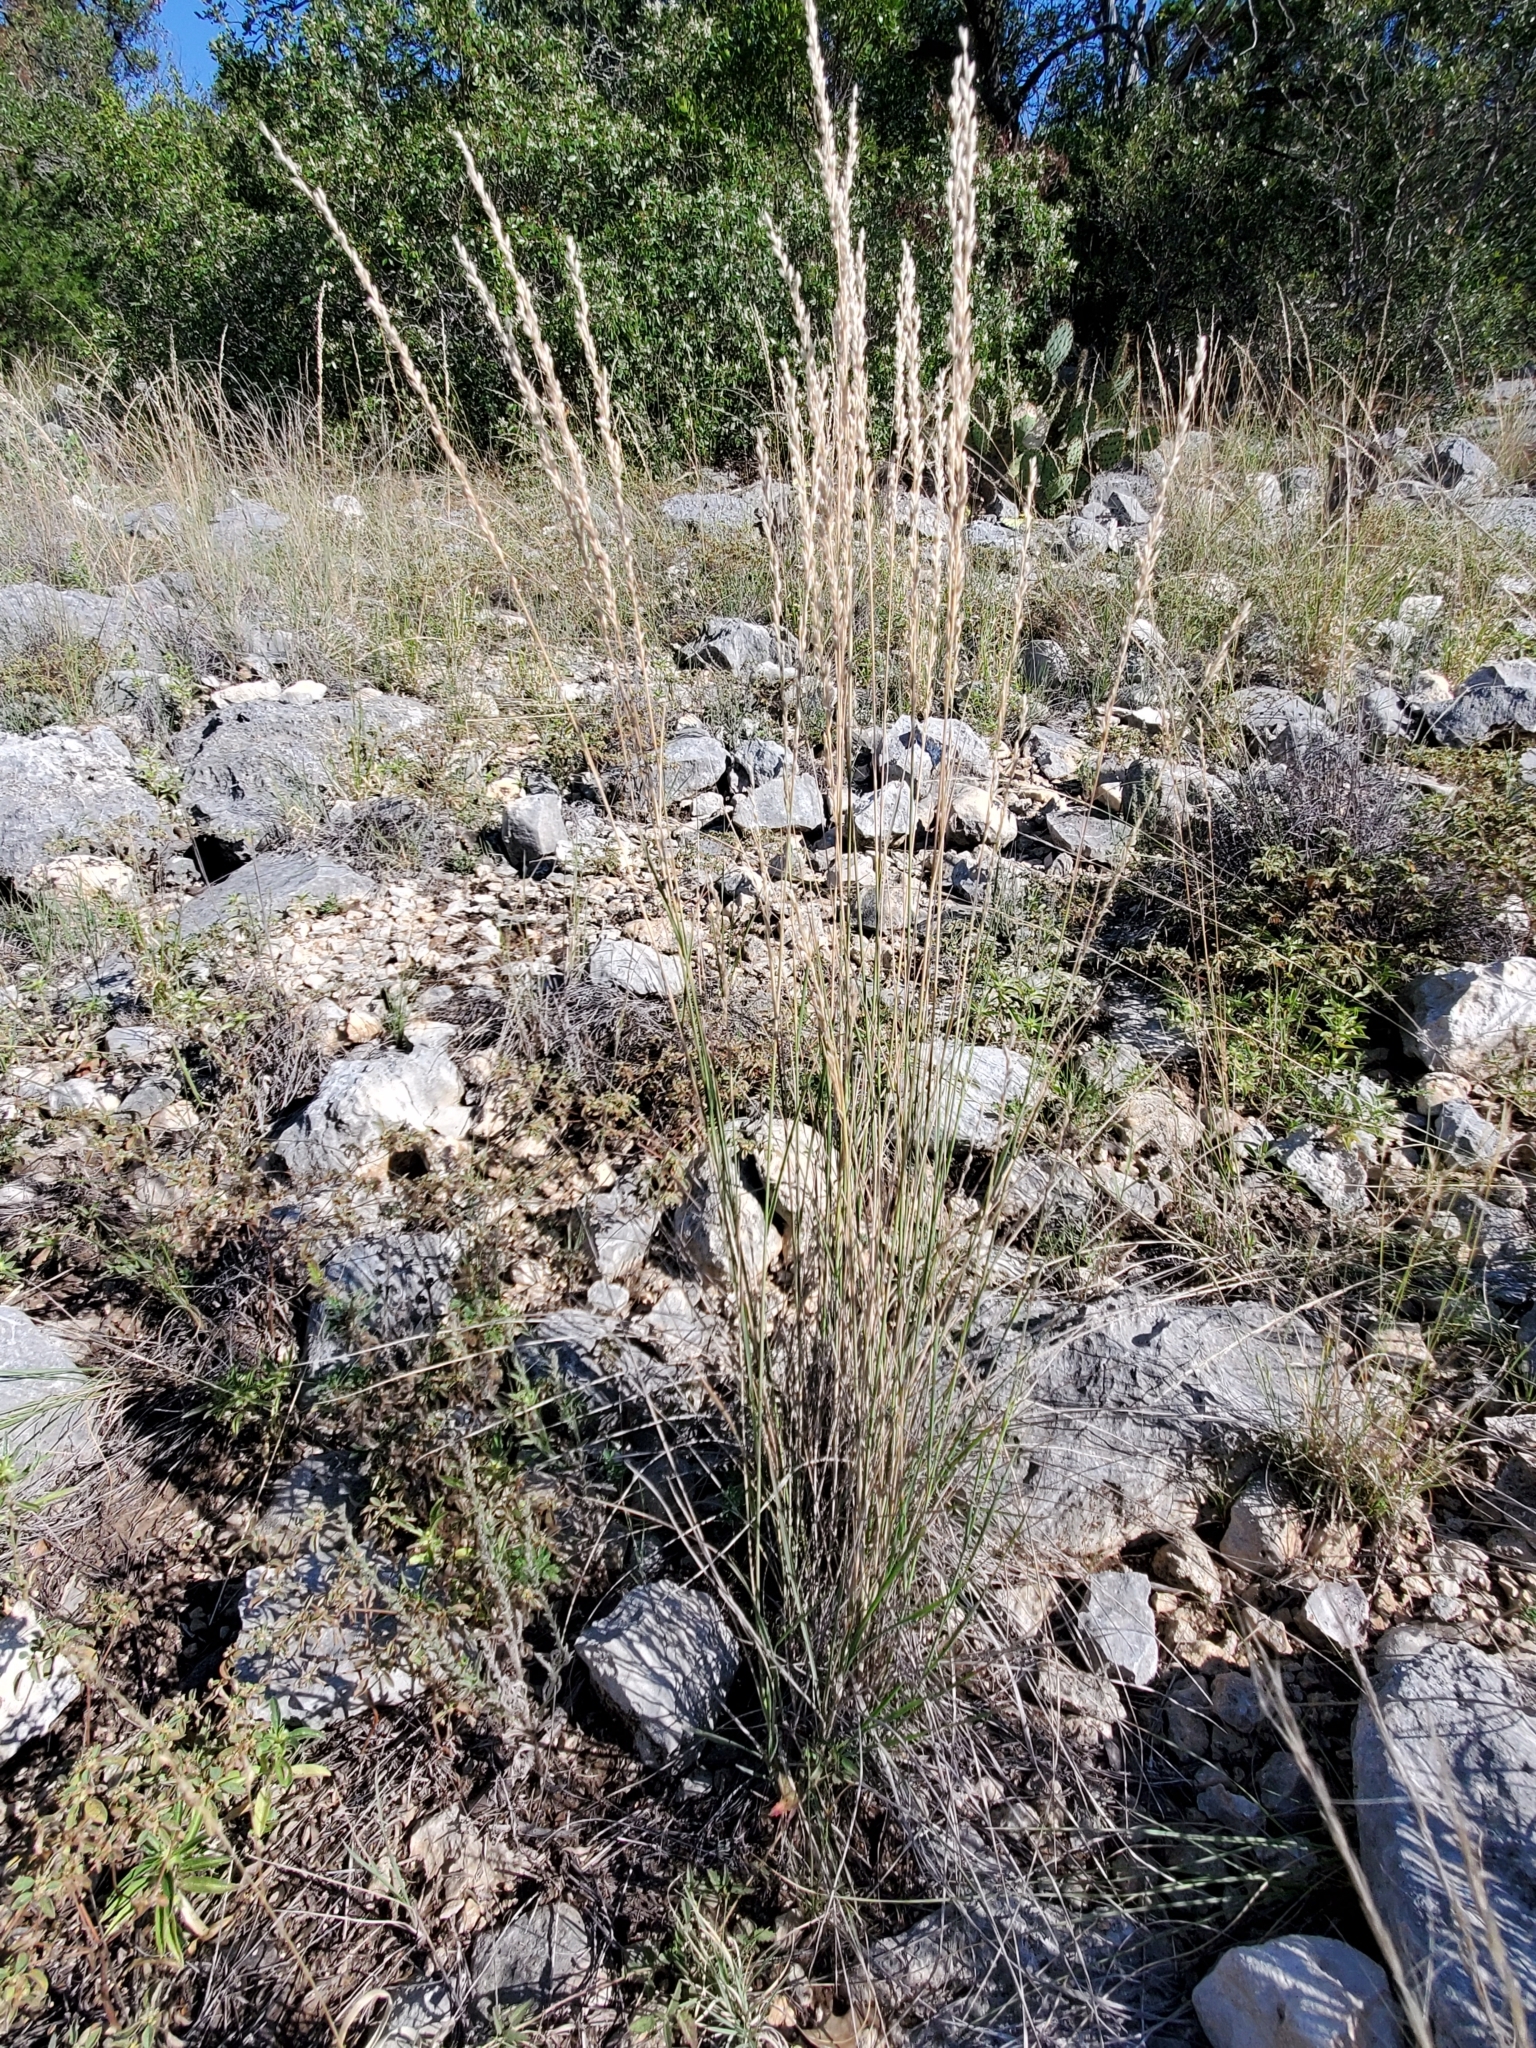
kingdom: Plantae
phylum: Tracheophyta
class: Liliopsida
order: Poales
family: Poaceae
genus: Tridentopsis
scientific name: Tridentopsis mutica
